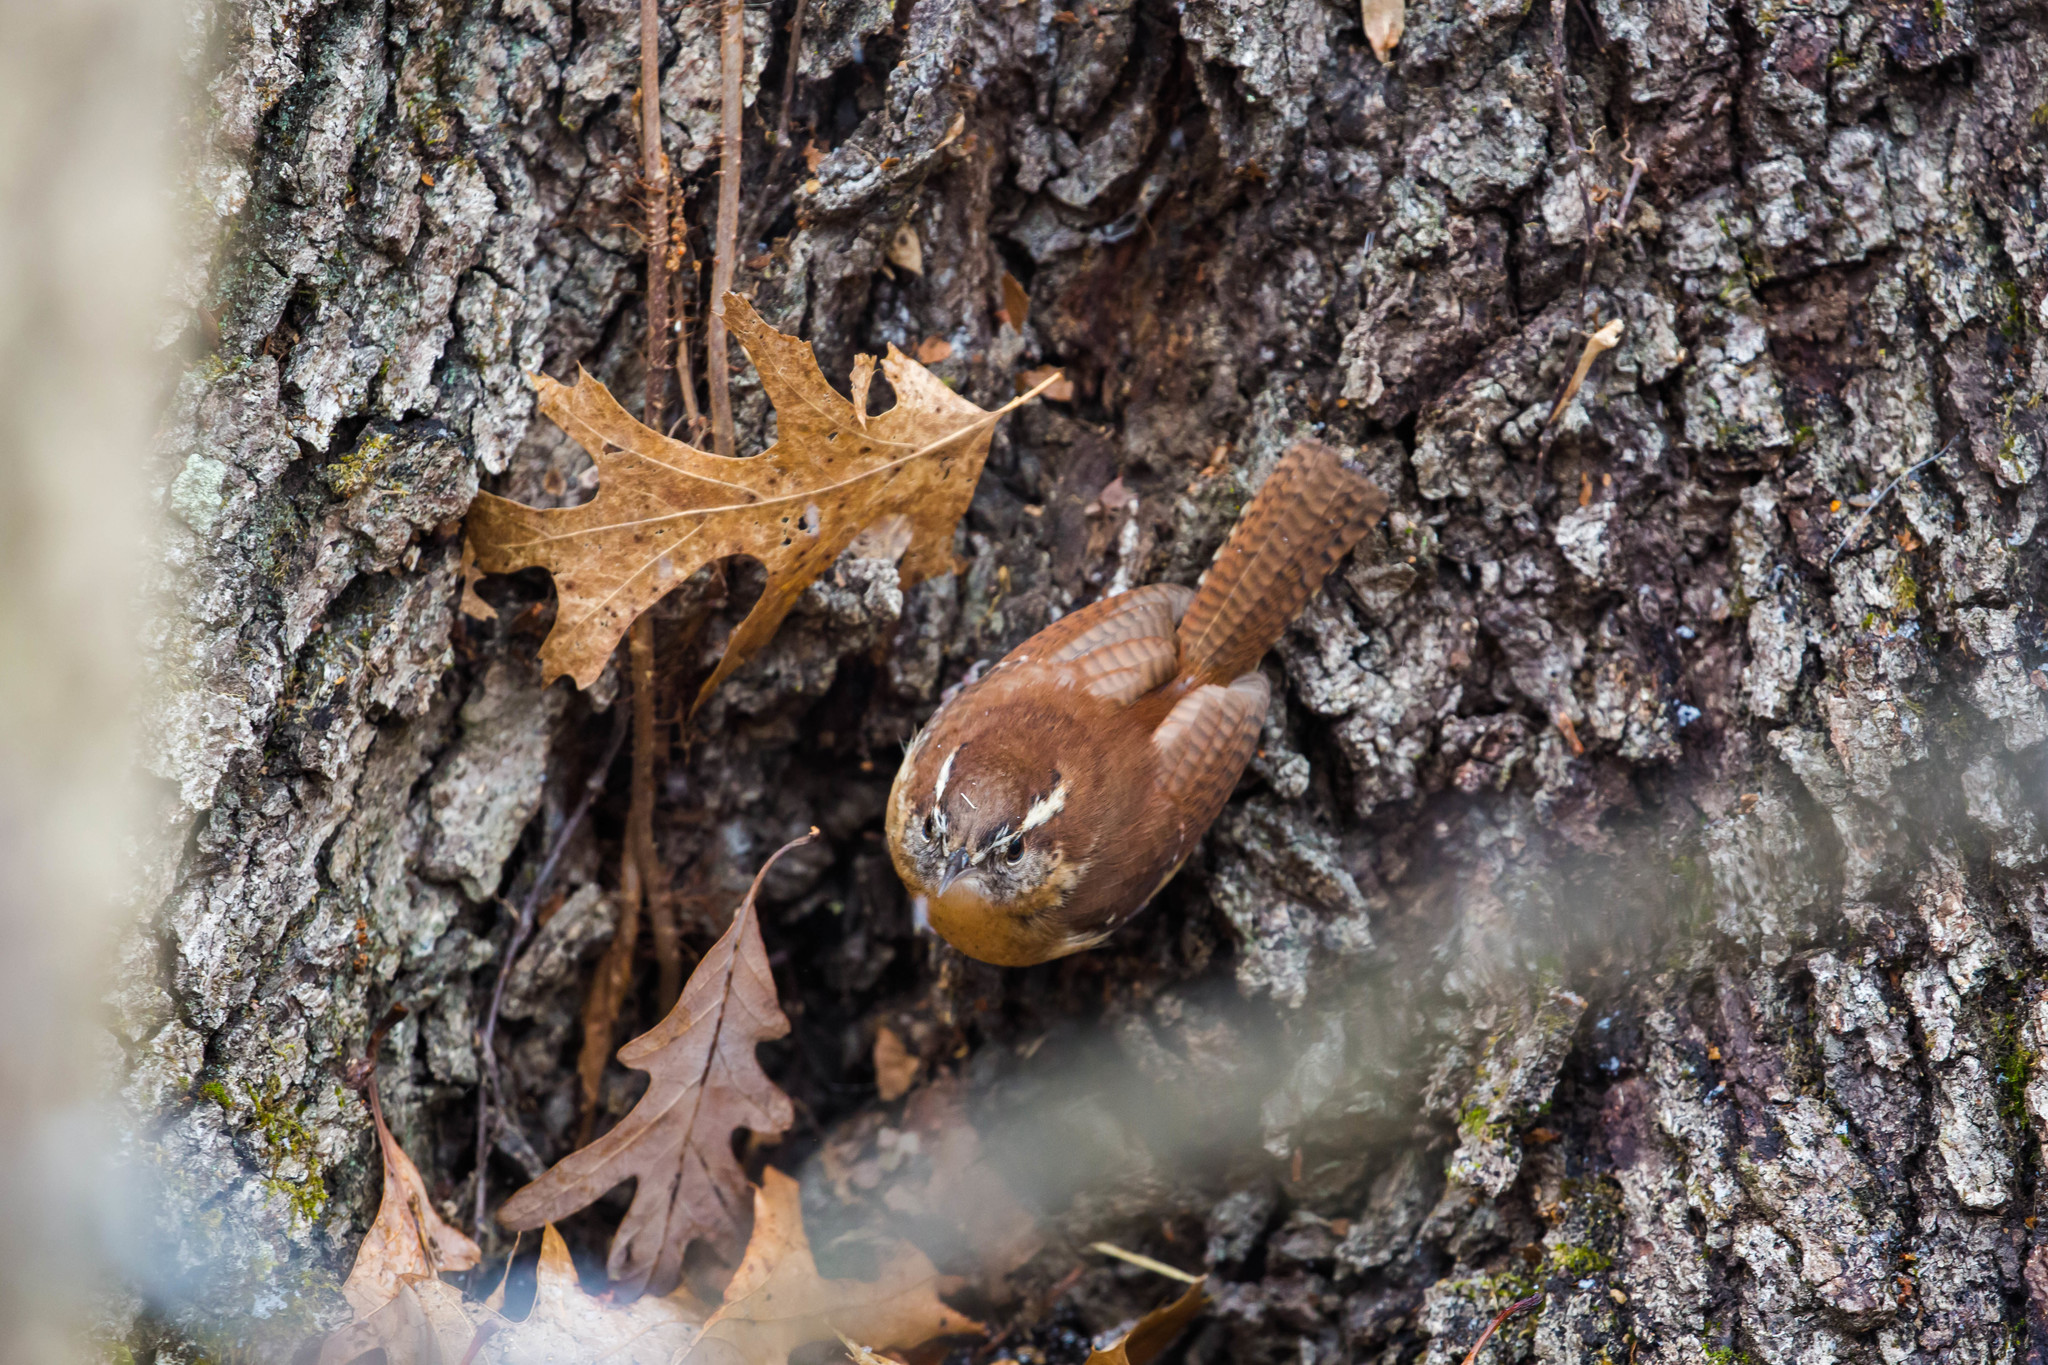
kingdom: Animalia
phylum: Chordata
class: Aves
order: Passeriformes
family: Troglodytidae
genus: Thryothorus
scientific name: Thryothorus ludovicianus
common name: Carolina wren
